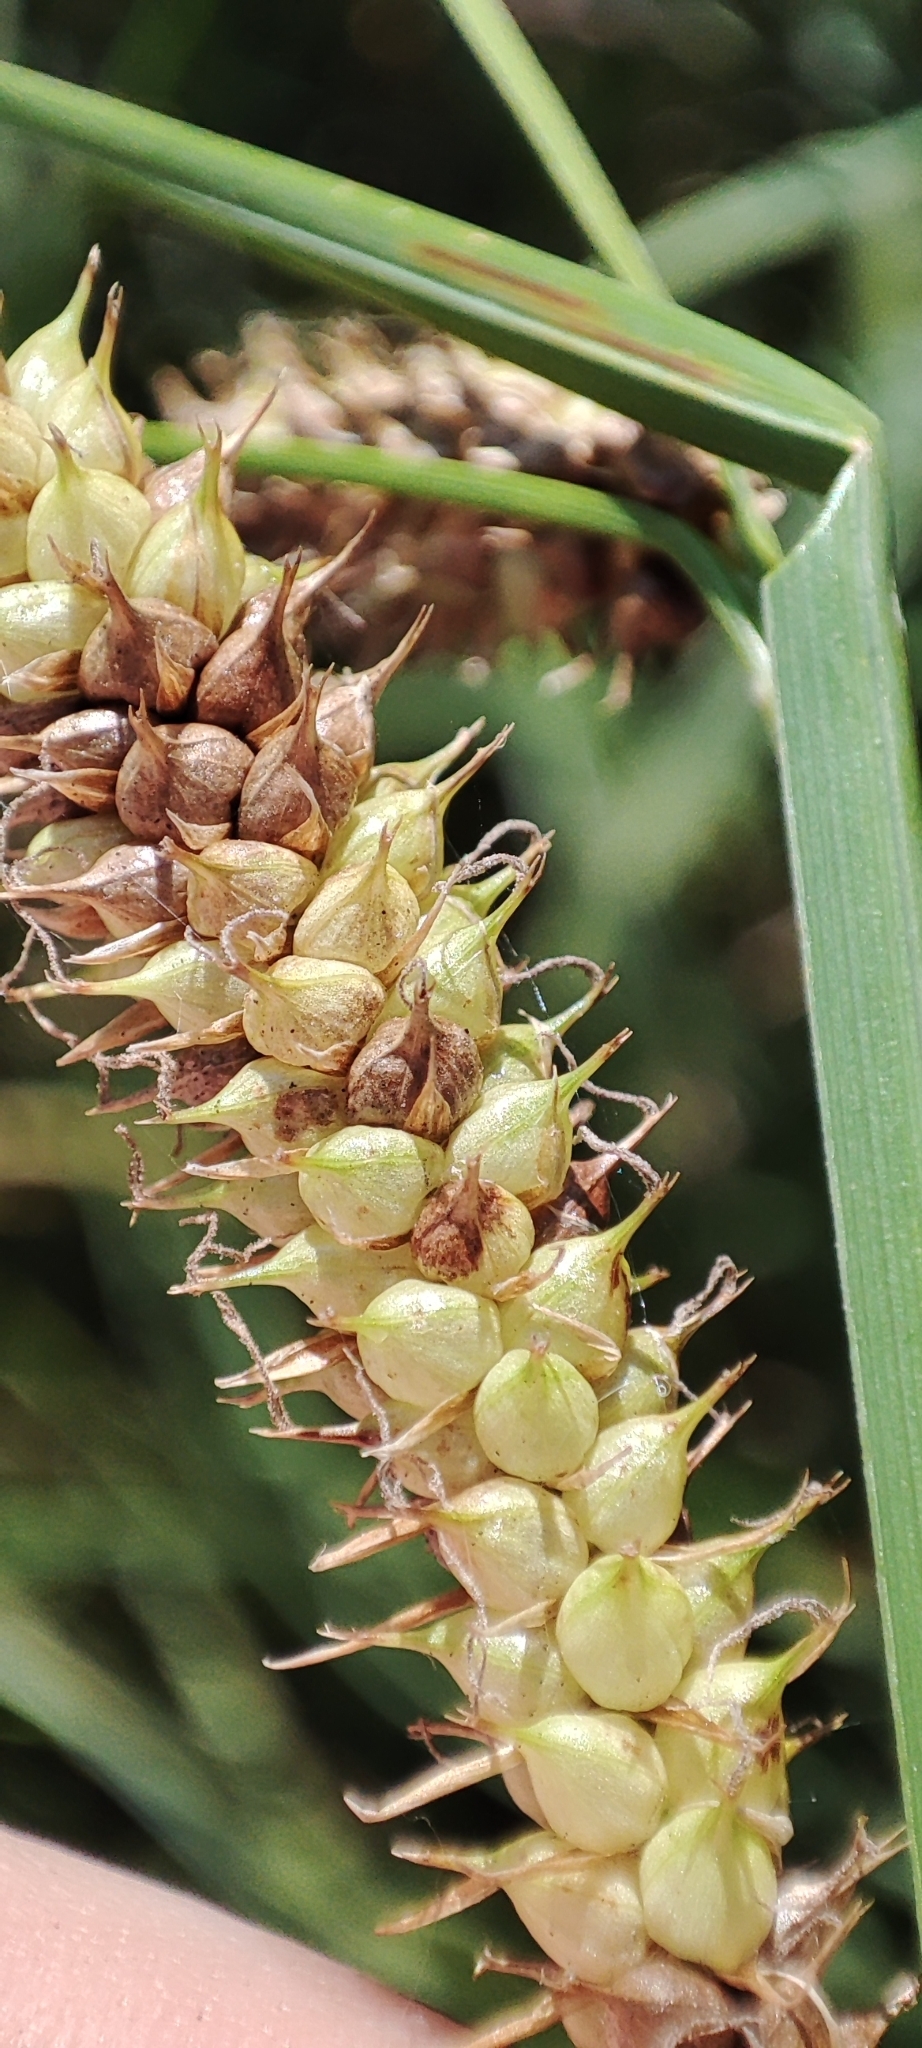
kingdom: Plantae
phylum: Tracheophyta
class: Liliopsida
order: Poales
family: Cyperaceae
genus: Carex
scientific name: Carex rostrata
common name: Bottle sedge
